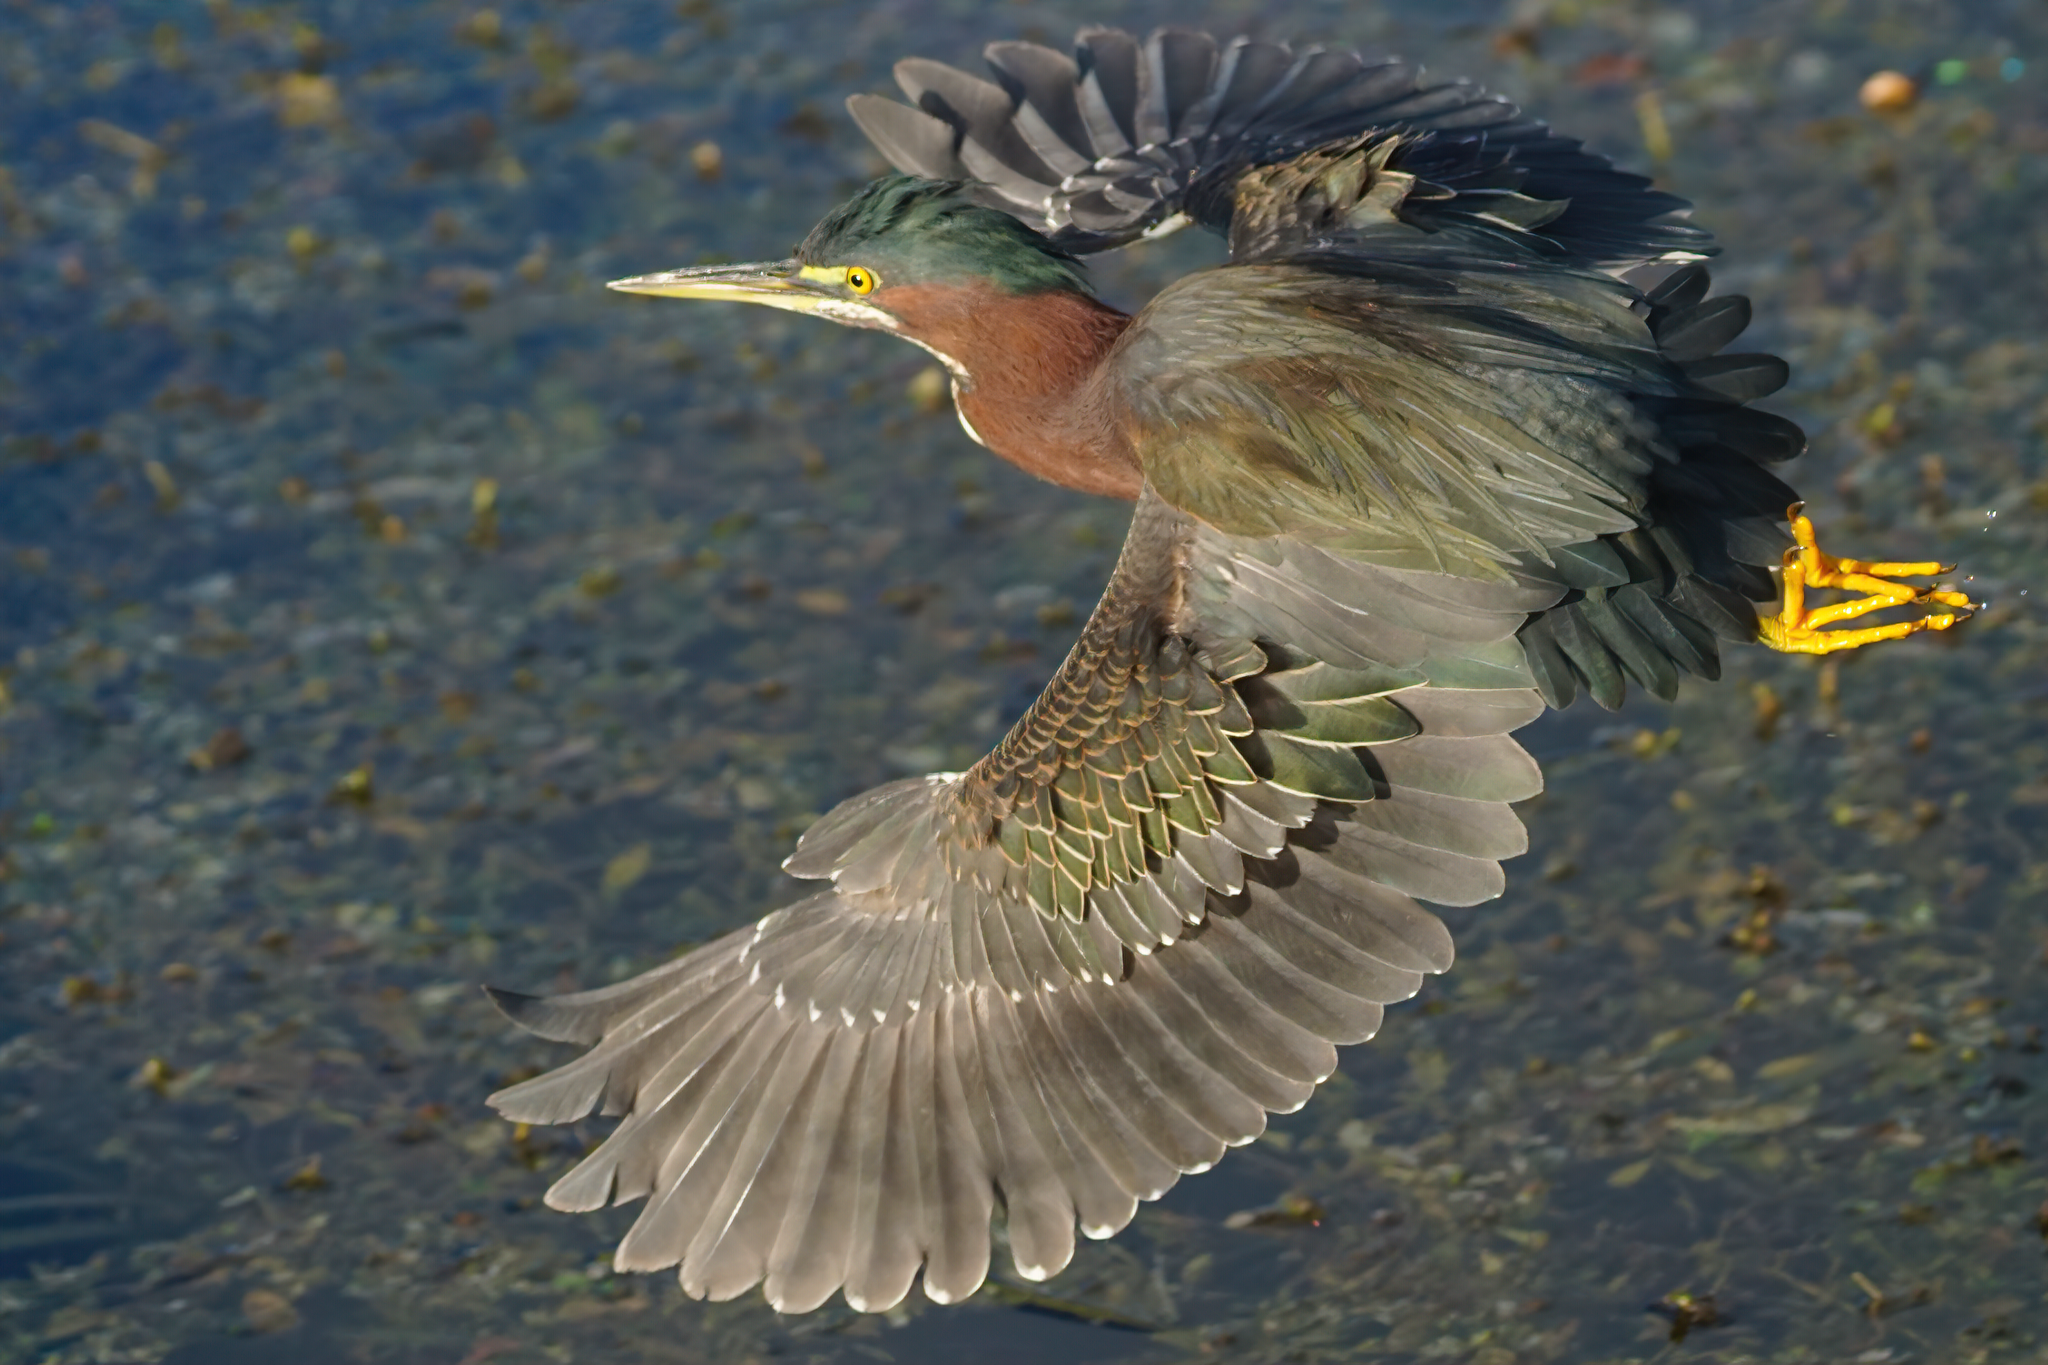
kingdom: Animalia
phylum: Chordata
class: Aves
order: Pelecaniformes
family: Ardeidae
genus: Butorides
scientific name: Butorides virescens
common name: Green heron
